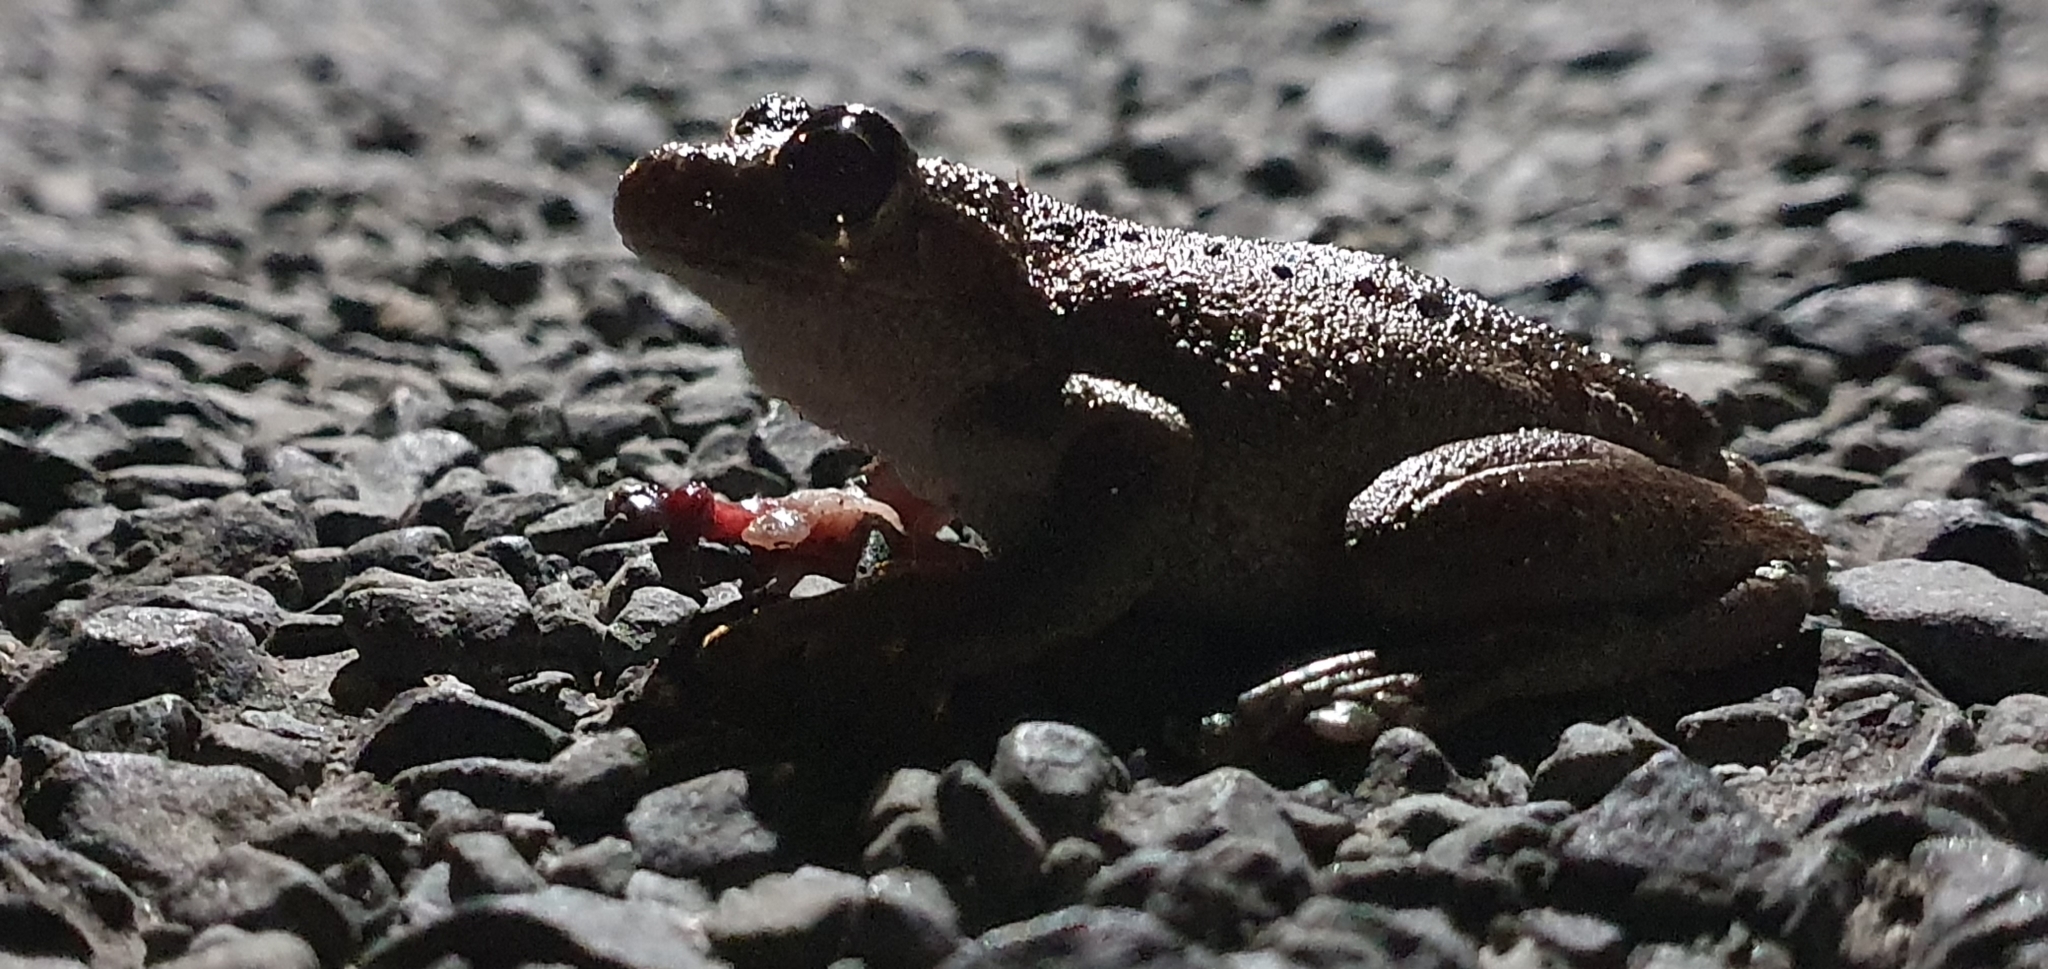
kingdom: Animalia
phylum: Chordata
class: Amphibia
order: Anura
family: Pelodryadidae
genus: Litoria
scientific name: Litoria peronii
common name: Emerald spotted treefrog
